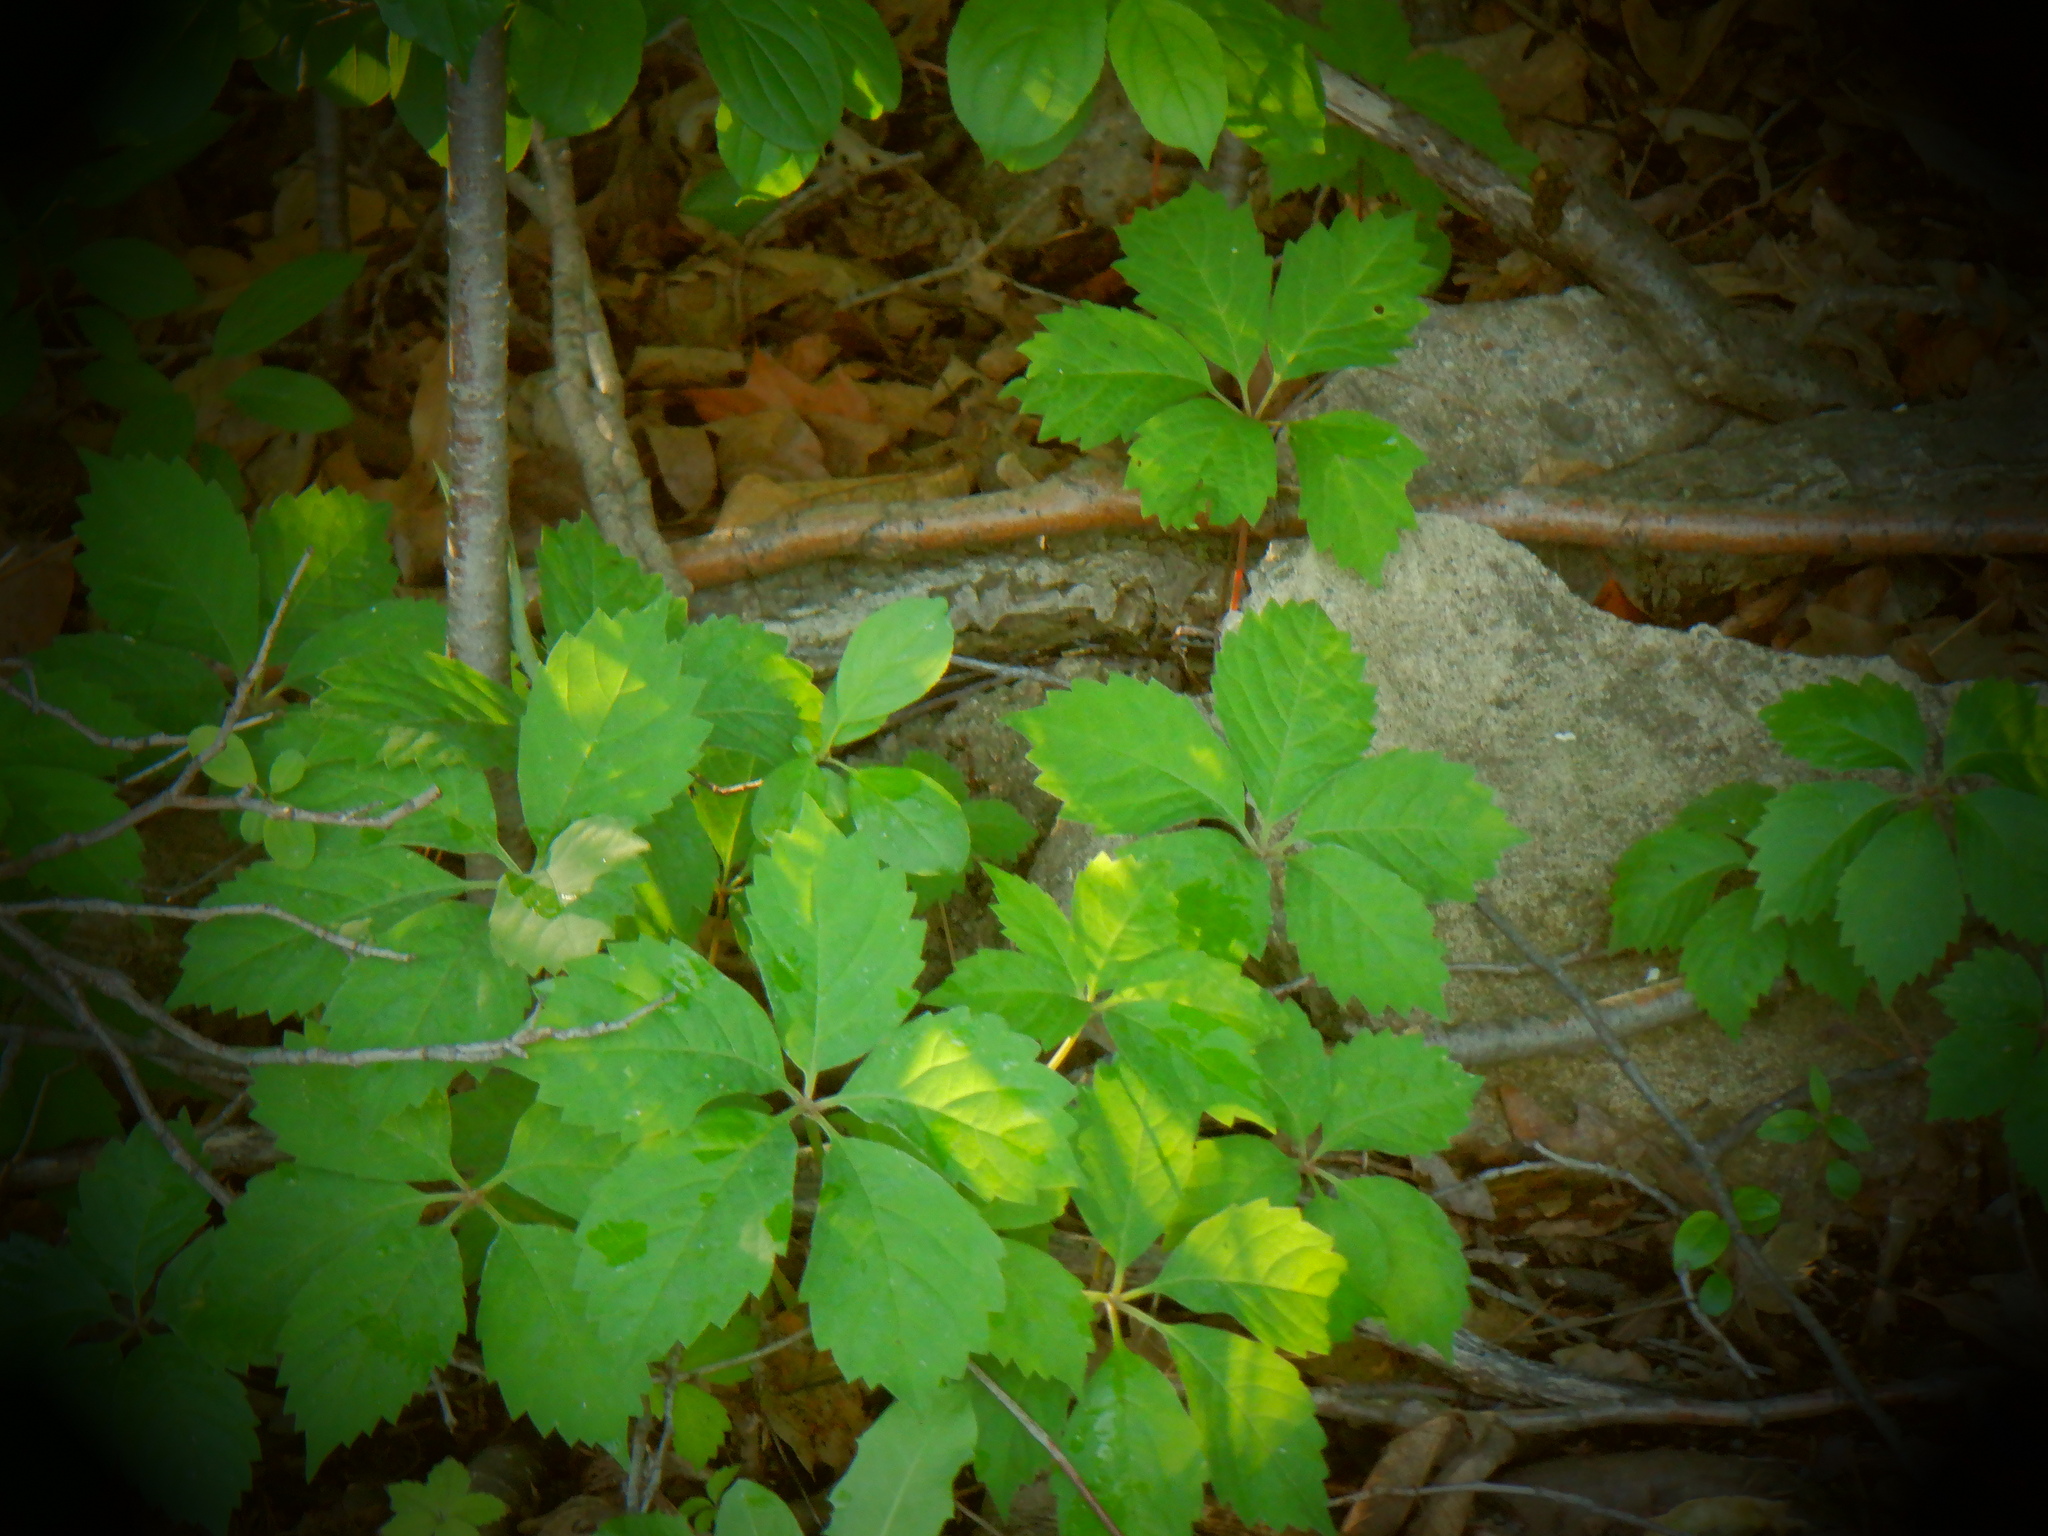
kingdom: Plantae
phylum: Tracheophyta
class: Magnoliopsida
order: Vitales
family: Vitaceae
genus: Parthenocissus
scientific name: Parthenocissus quinquefolia
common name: Virginia-creeper
